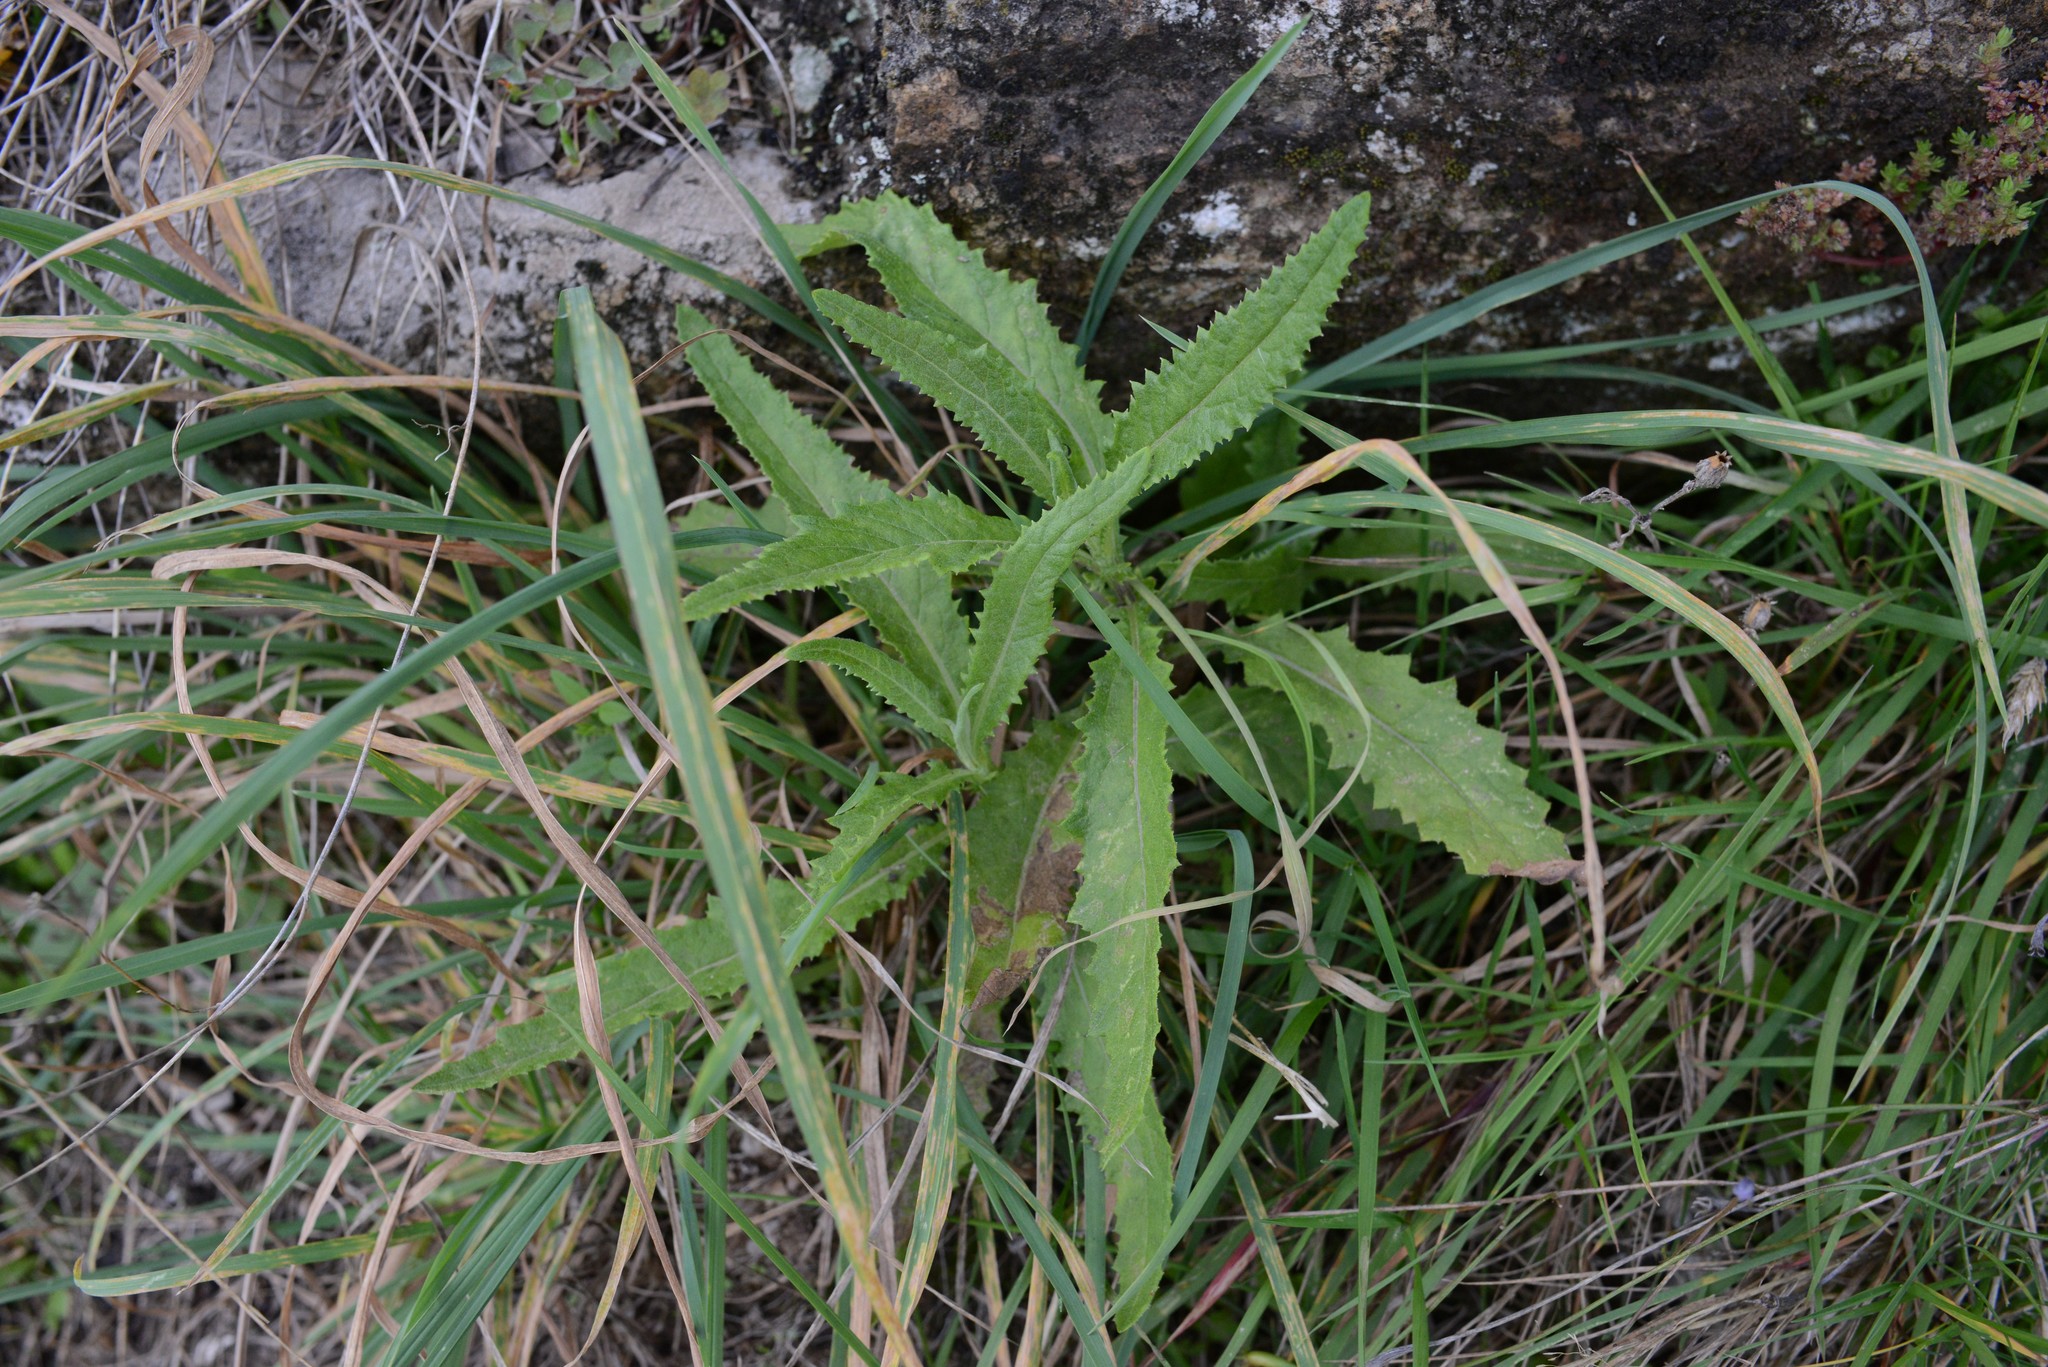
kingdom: Plantae
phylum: Tracheophyta
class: Magnoliopsida
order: Asterales
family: Asteraceae
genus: Senecio
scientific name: Senecio minimus
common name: Toothed fireweed
